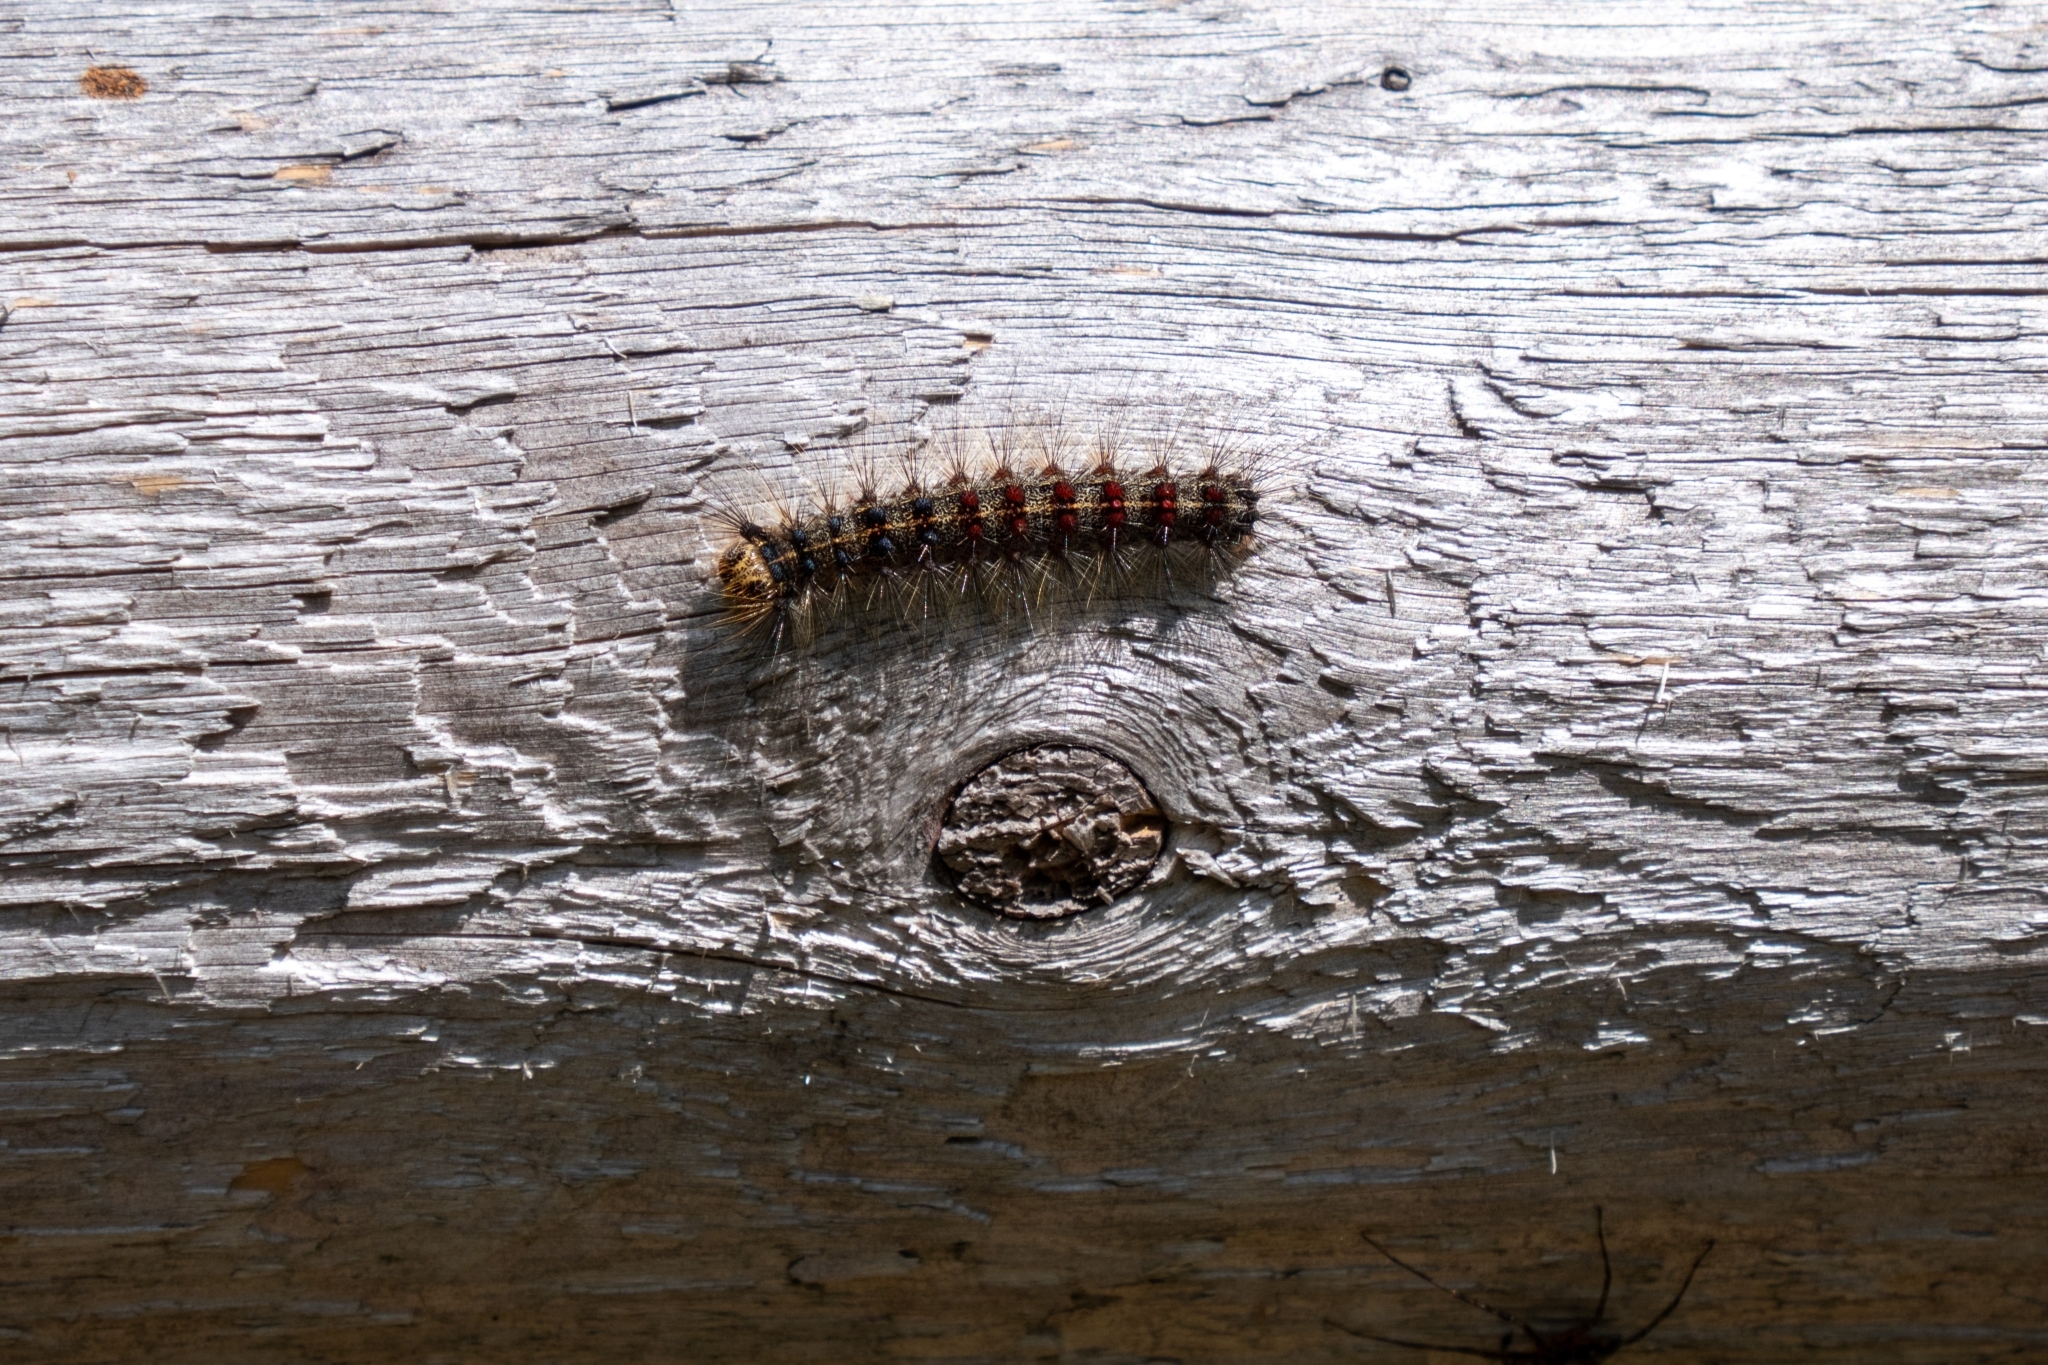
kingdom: Animalia
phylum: Arthropoda
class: Insecta
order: Lepidoptera
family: Erebidae
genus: Lymantria
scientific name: Lymantria dispar
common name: Gypsy moth
